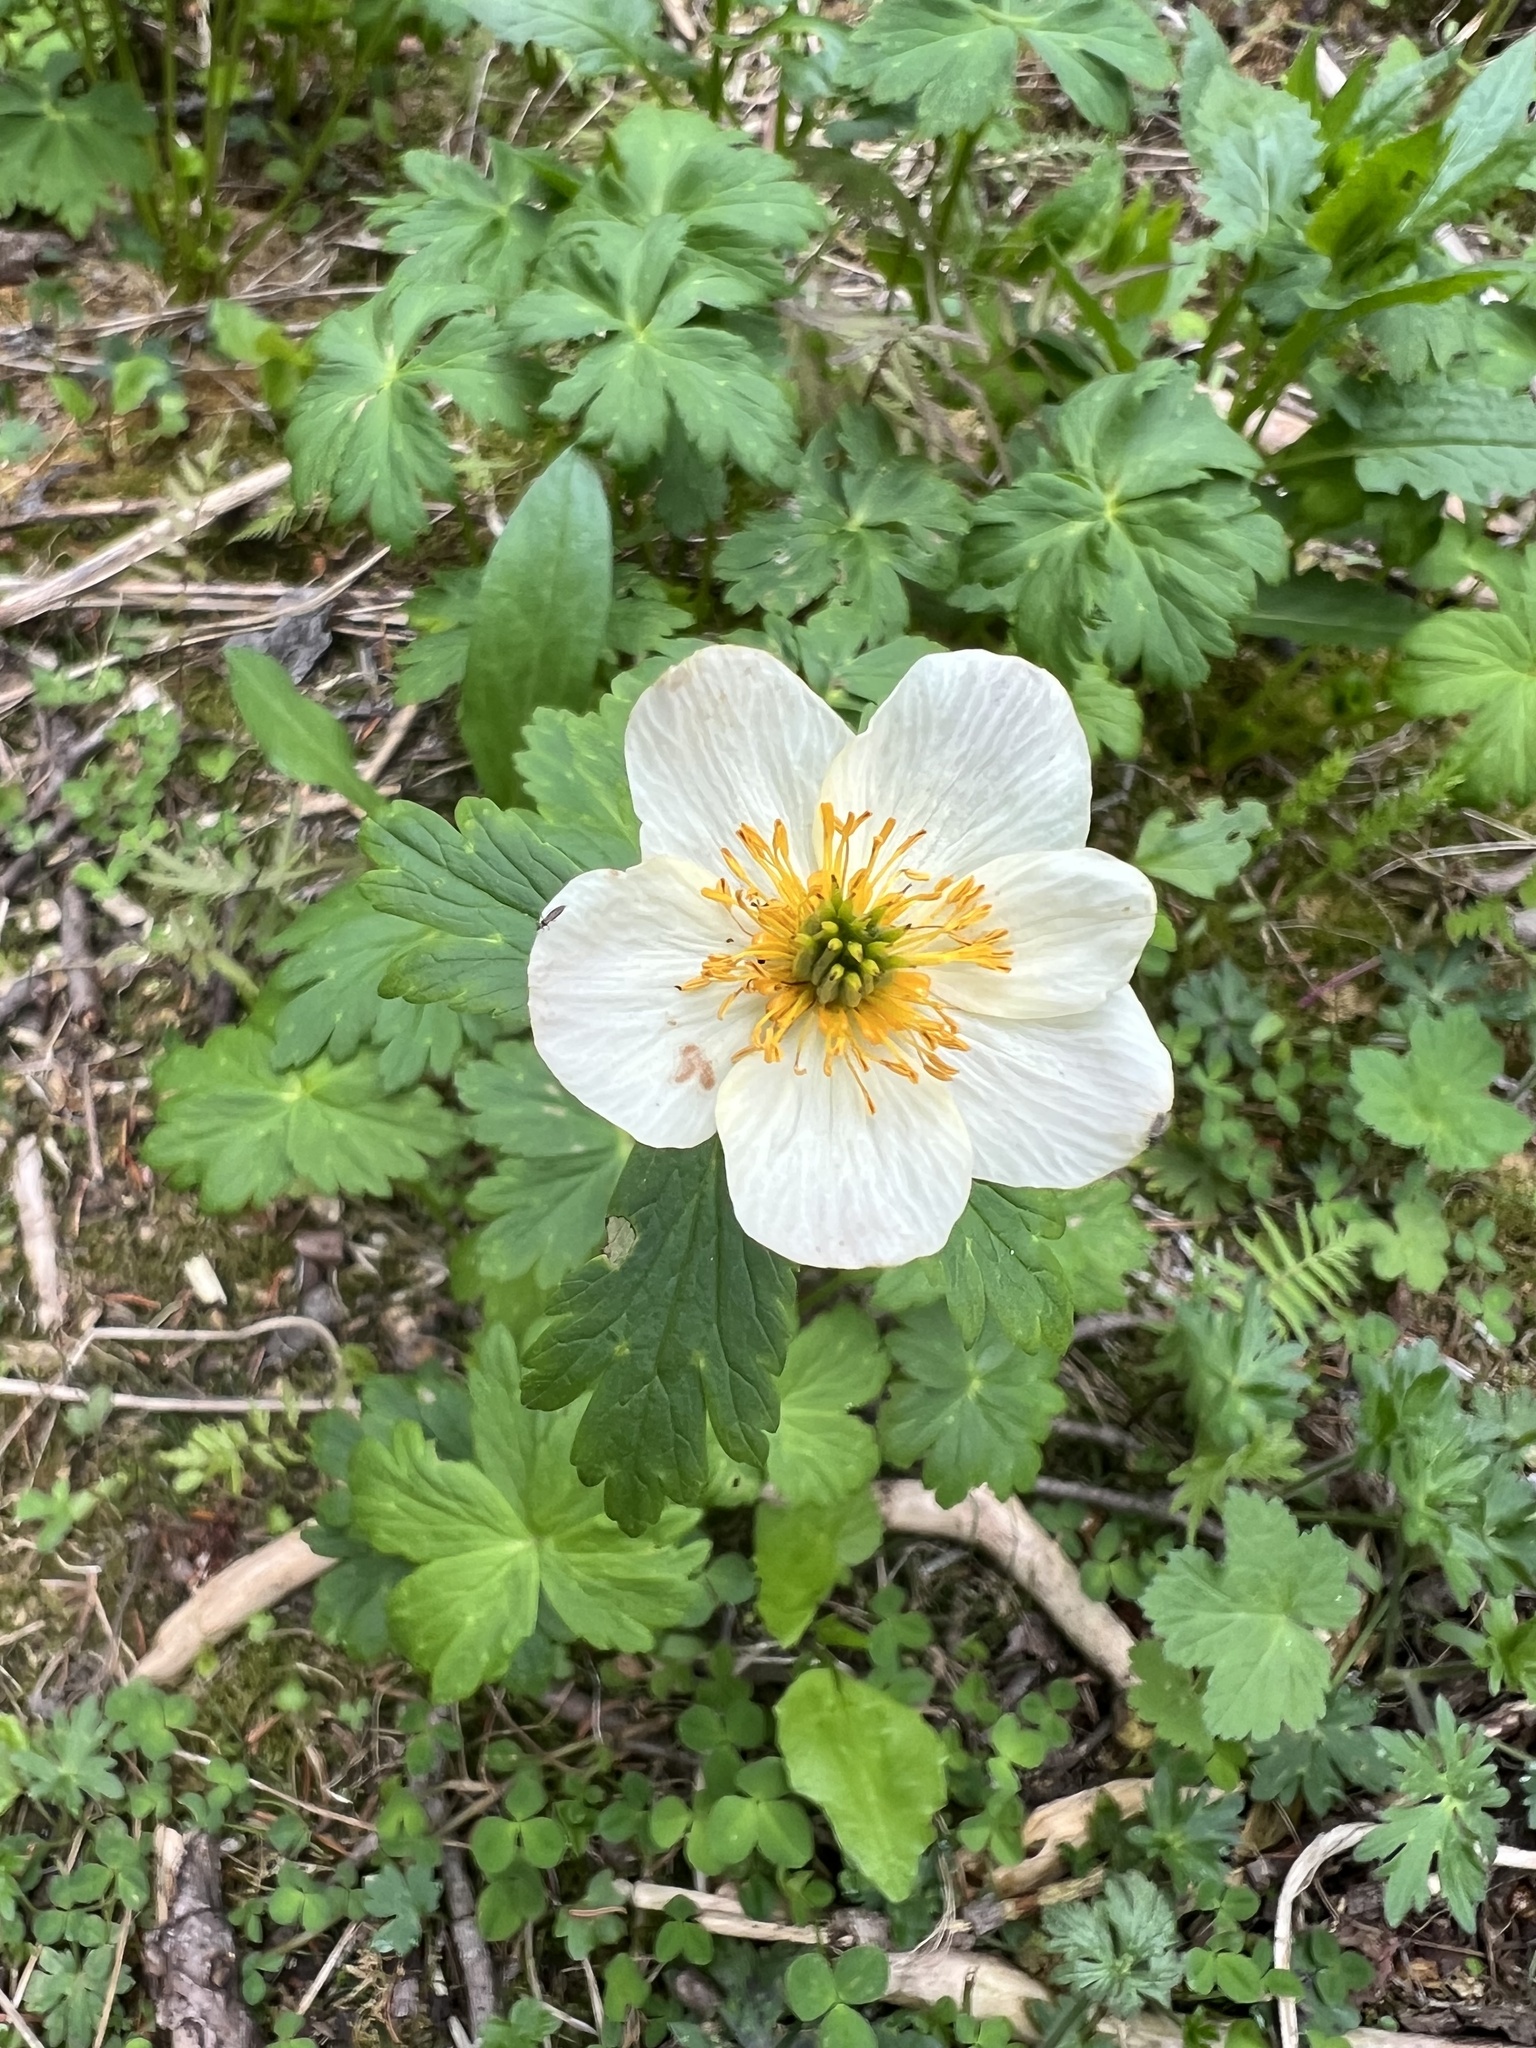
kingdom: Plantae
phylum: Tracheophyta
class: Magnoliopsida
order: Ranunculales
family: Ranunculaceae
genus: Trollius
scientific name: Trollius laxus
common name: American globeflower
